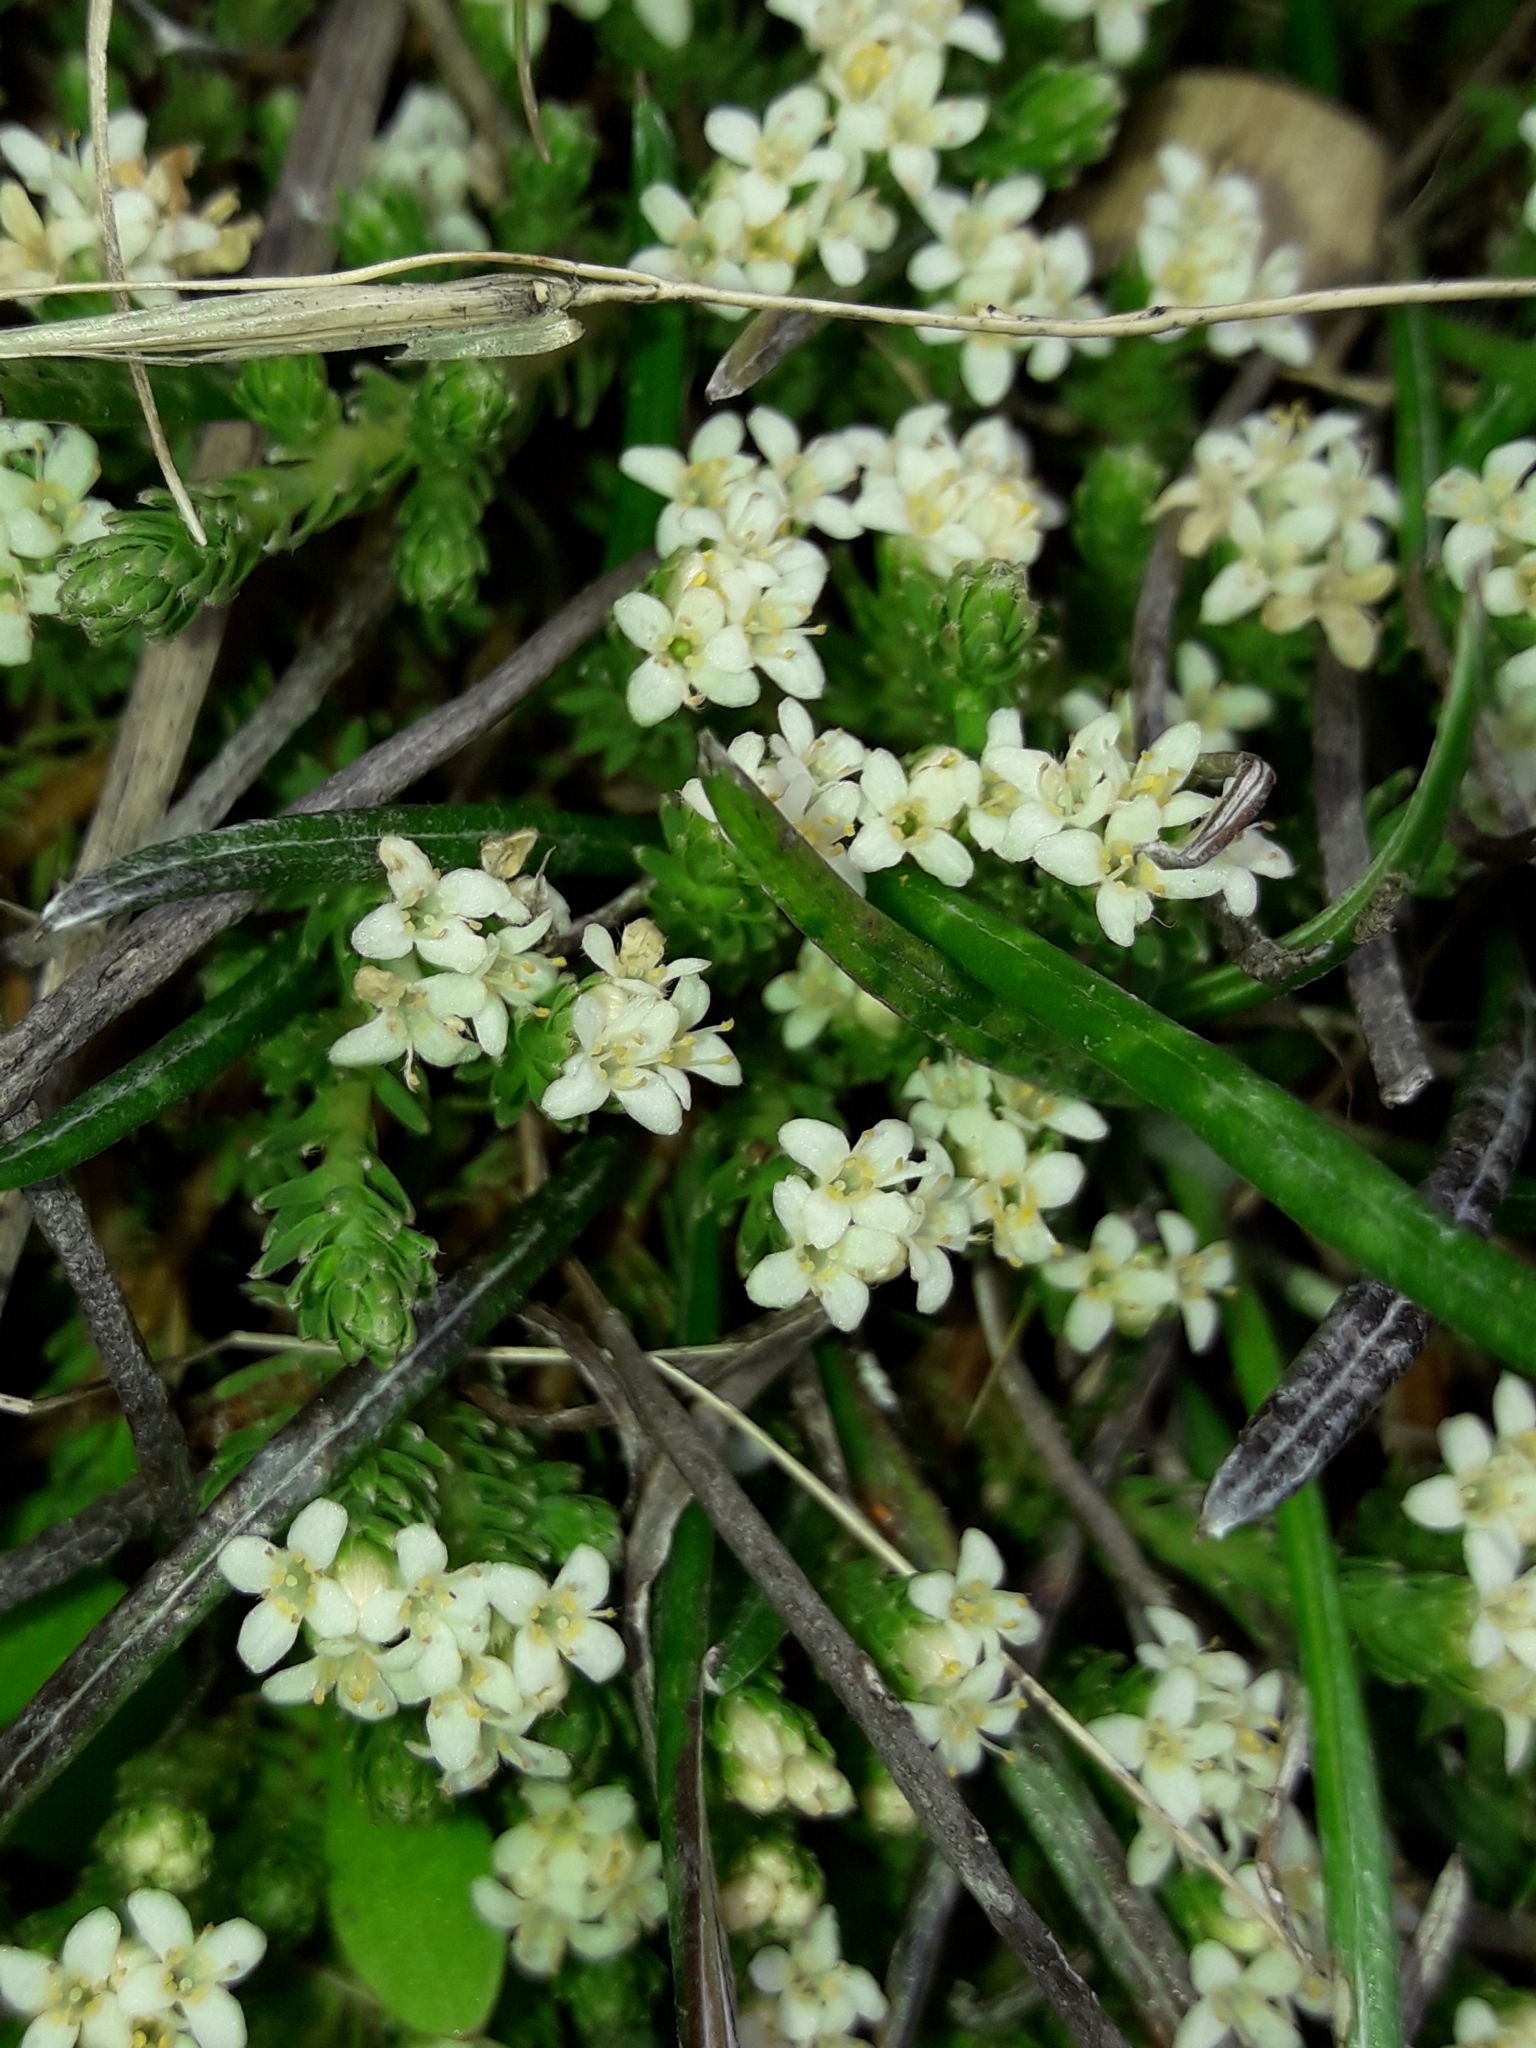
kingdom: Plantae
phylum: Tracheophyta
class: Magnoliopsida
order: Malvales
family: Thymelaeaceae
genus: Kelleria
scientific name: Kelleria dieffenbachii
